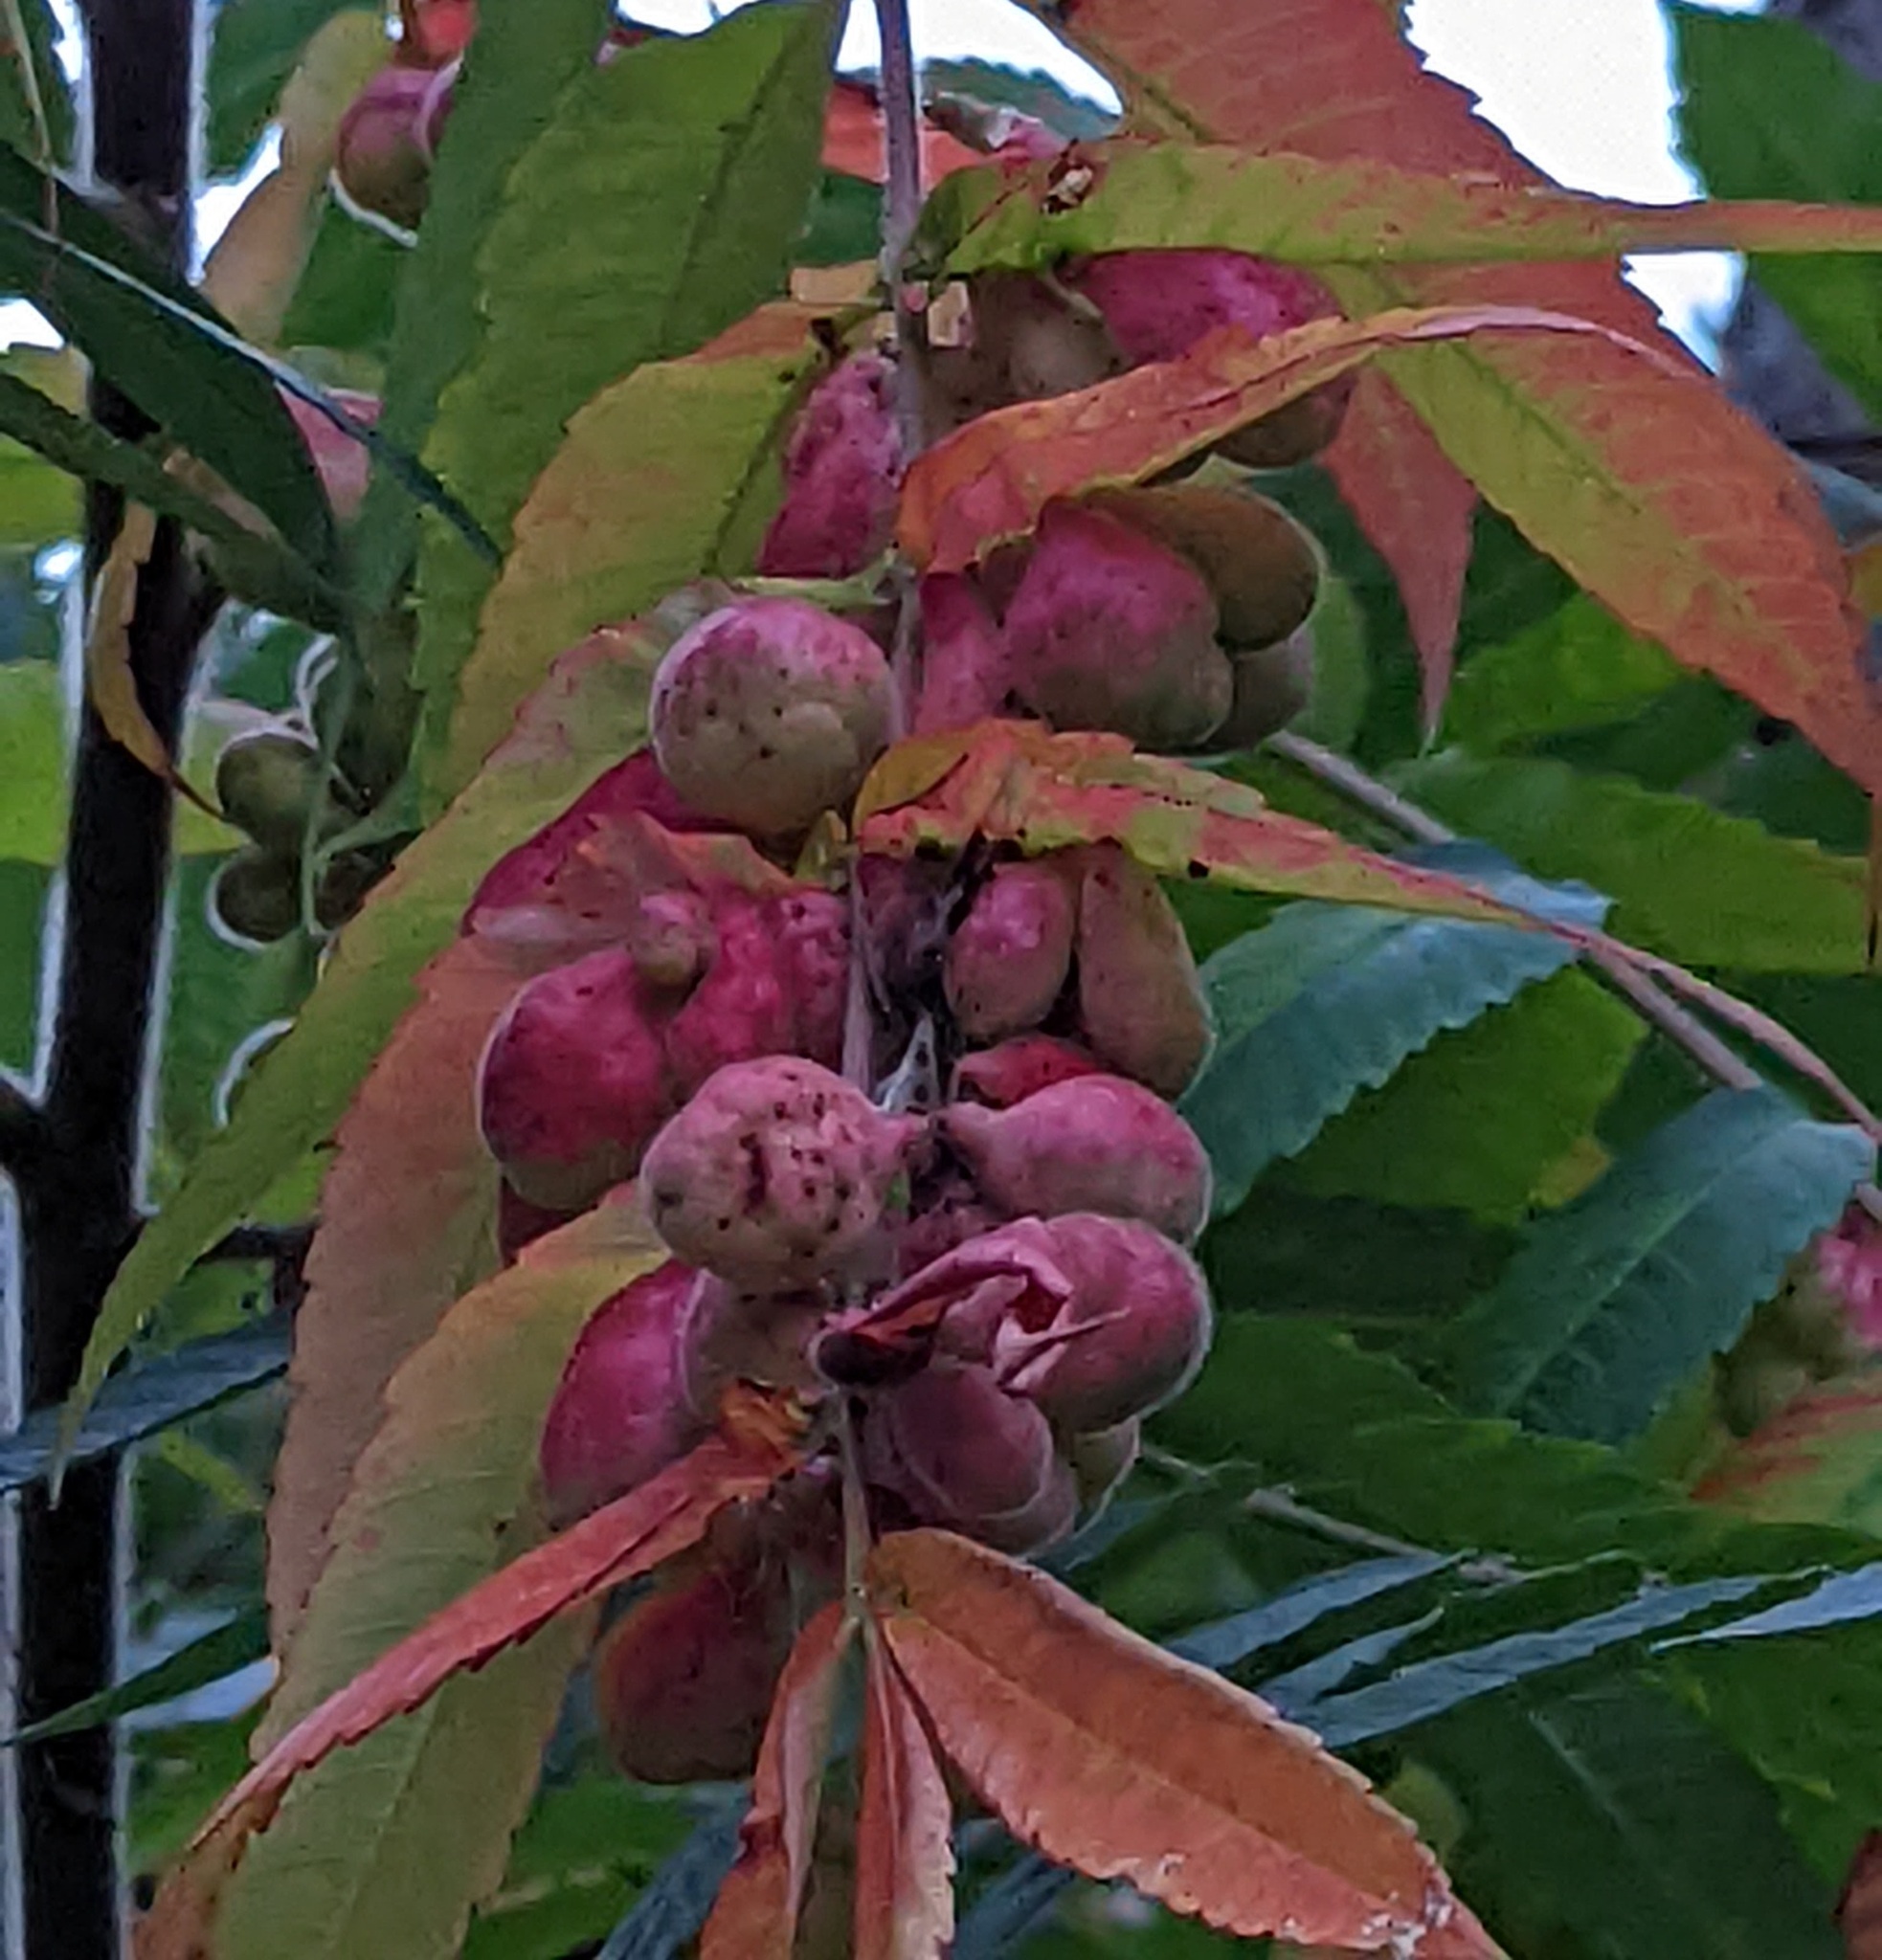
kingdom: Animalia
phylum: Arthropoda
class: Insecta
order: Hemiptera
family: Aphididae
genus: Melaphis
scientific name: Melaphis rhois
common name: Sumac gall aphid
